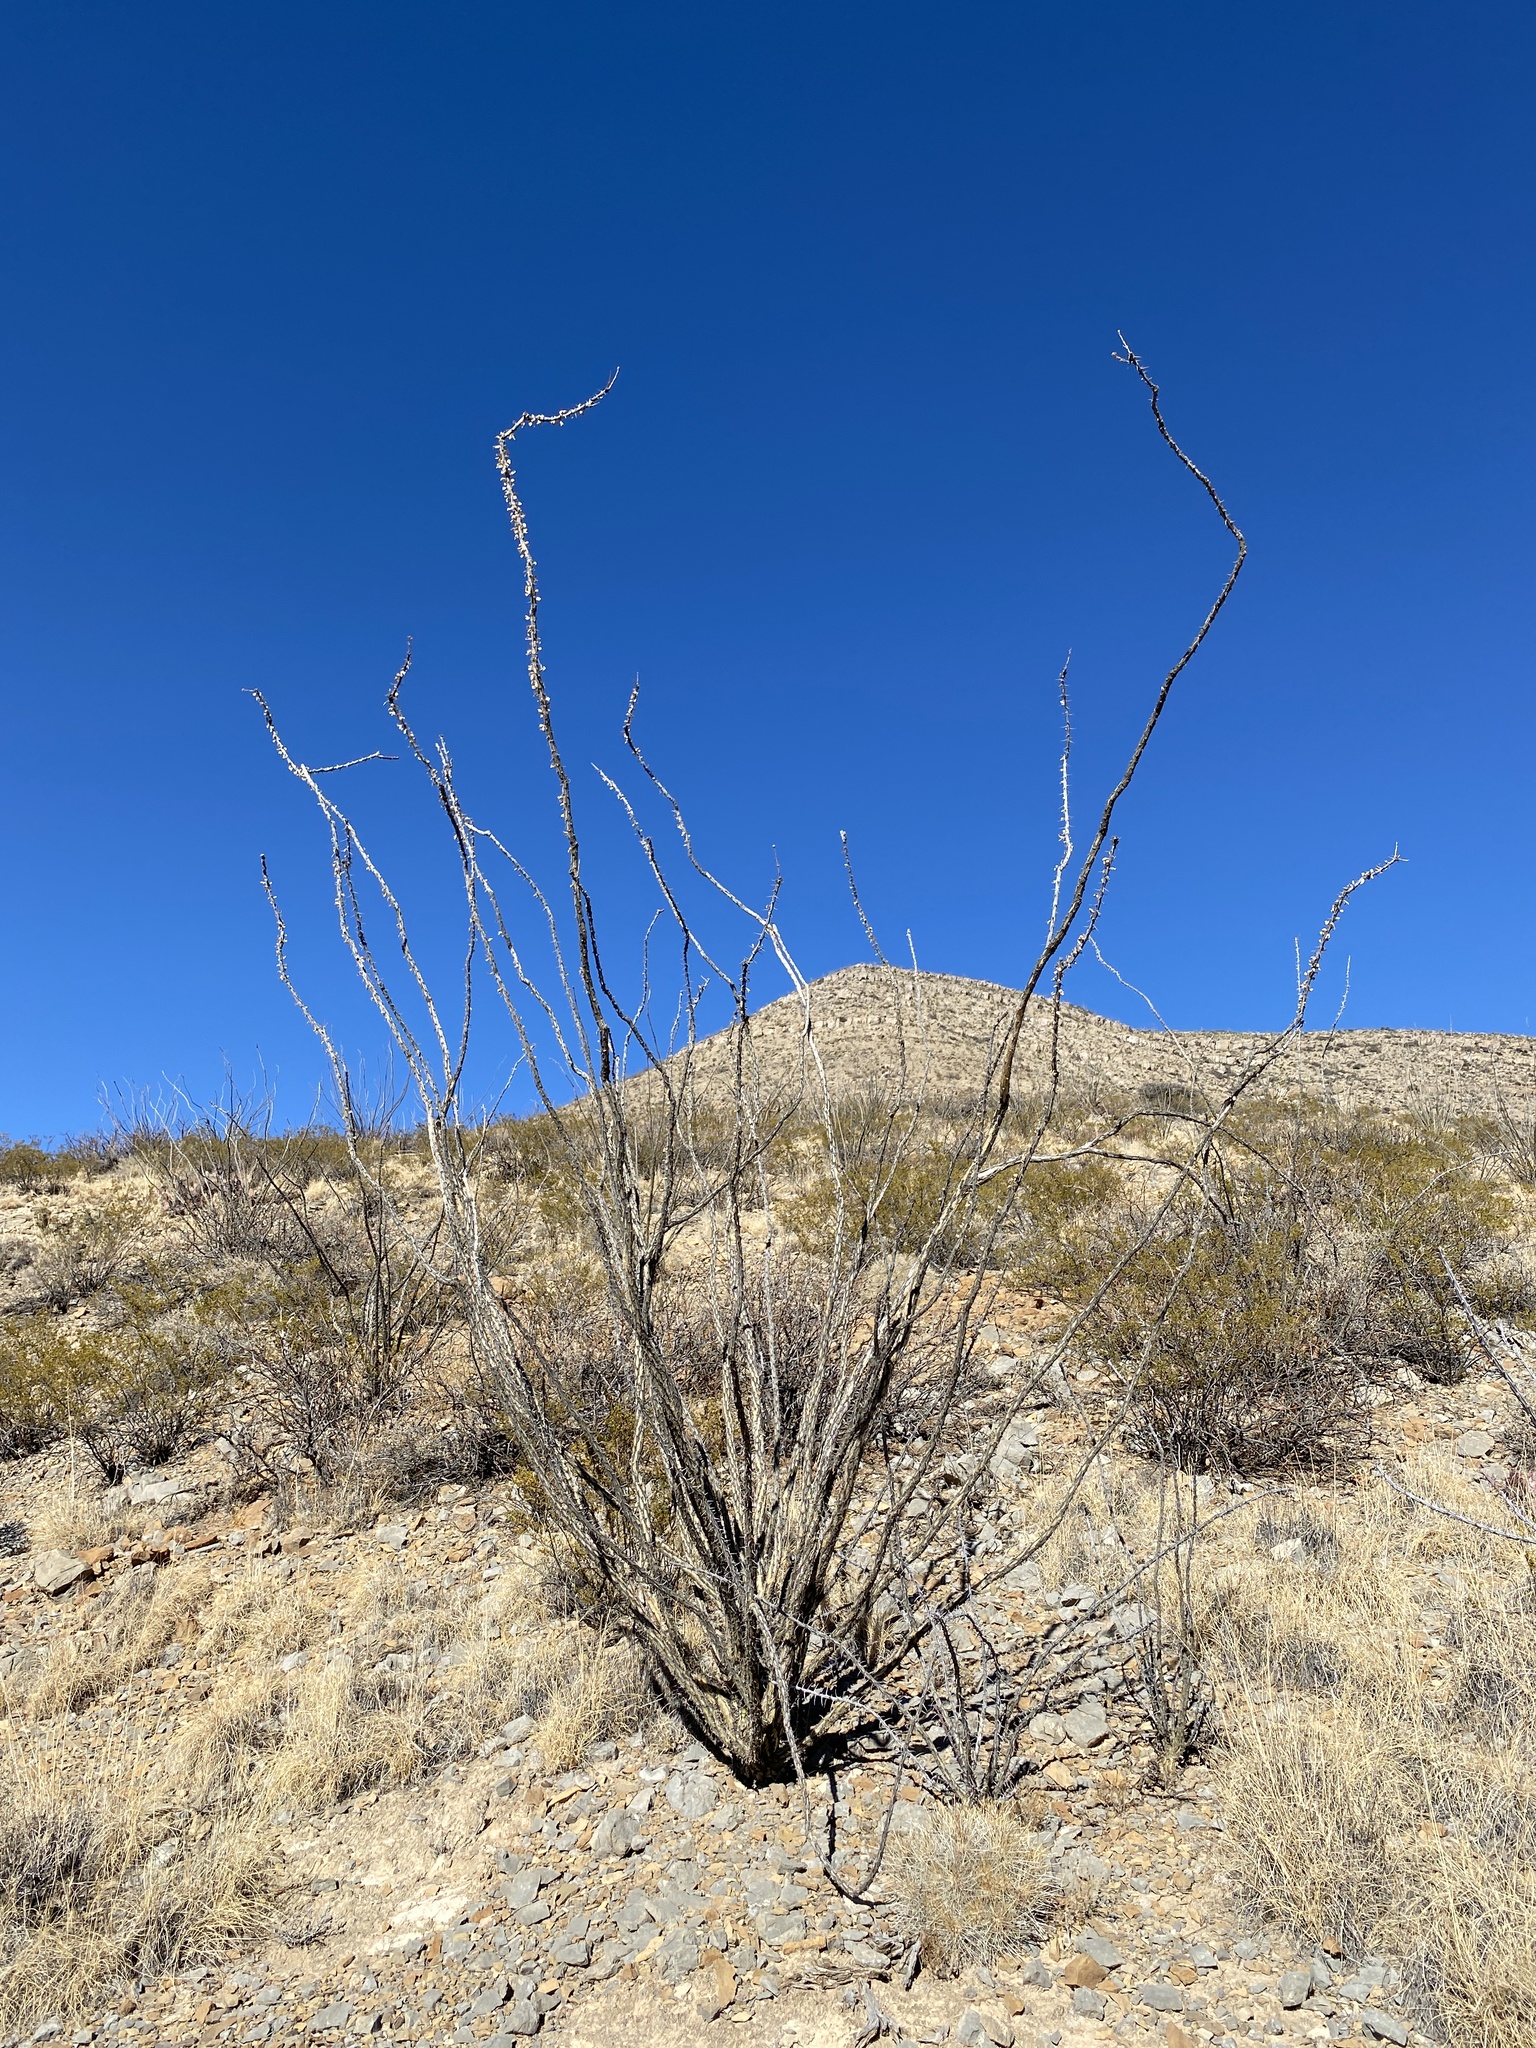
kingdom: Plantae
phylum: Tracheophyta
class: Magnoliopsida
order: Ericales
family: Fouquieriaceae
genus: Fouquieria
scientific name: Fouquieria splendens
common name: Vine-cactus
